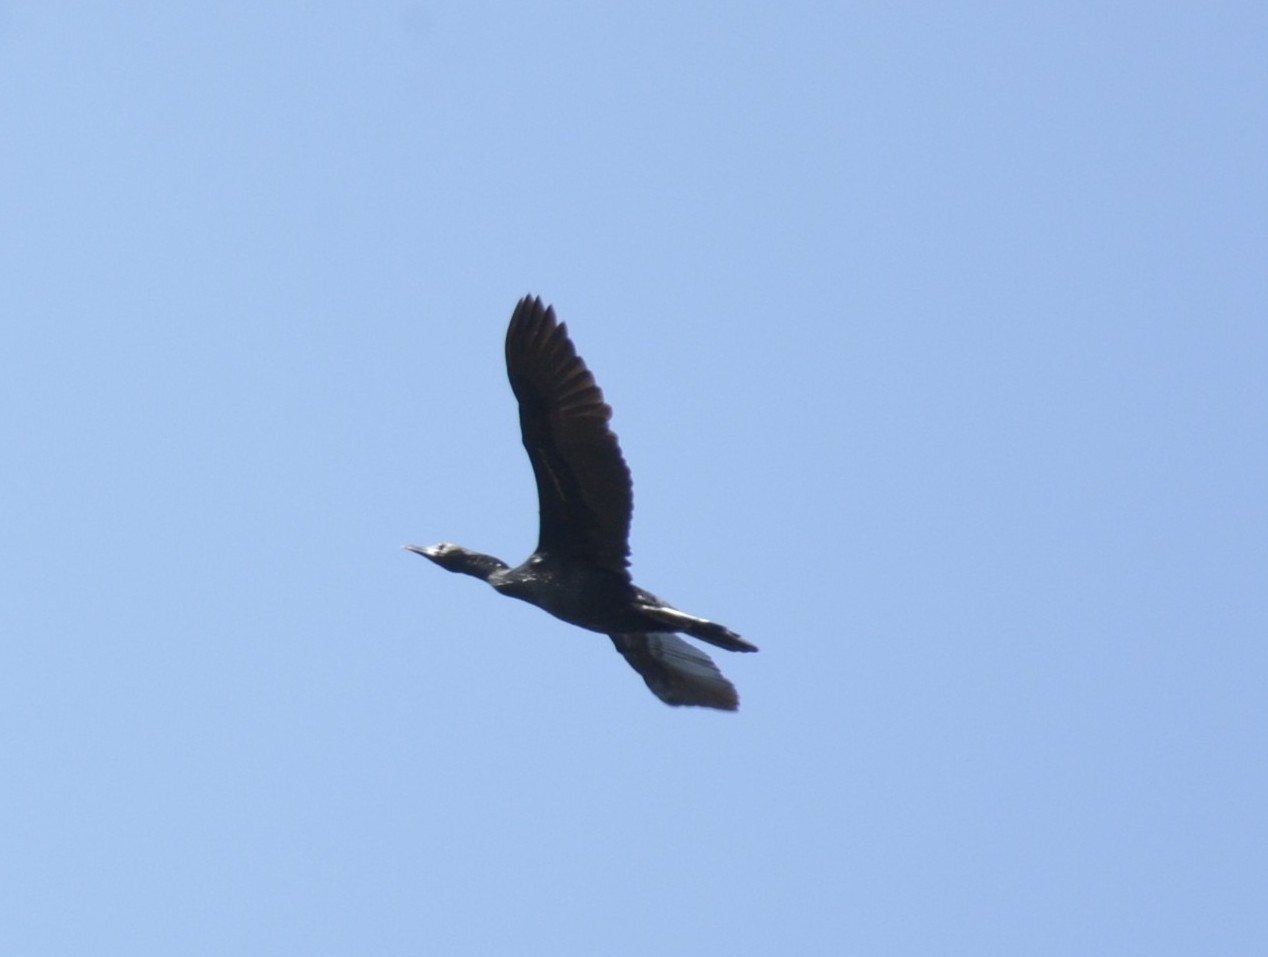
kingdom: Animalia
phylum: Chordata
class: Aves
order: Suliformes
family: Phalacrocoracidae
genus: Microcarbo
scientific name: Microcarbo niger
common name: Little cormorant
